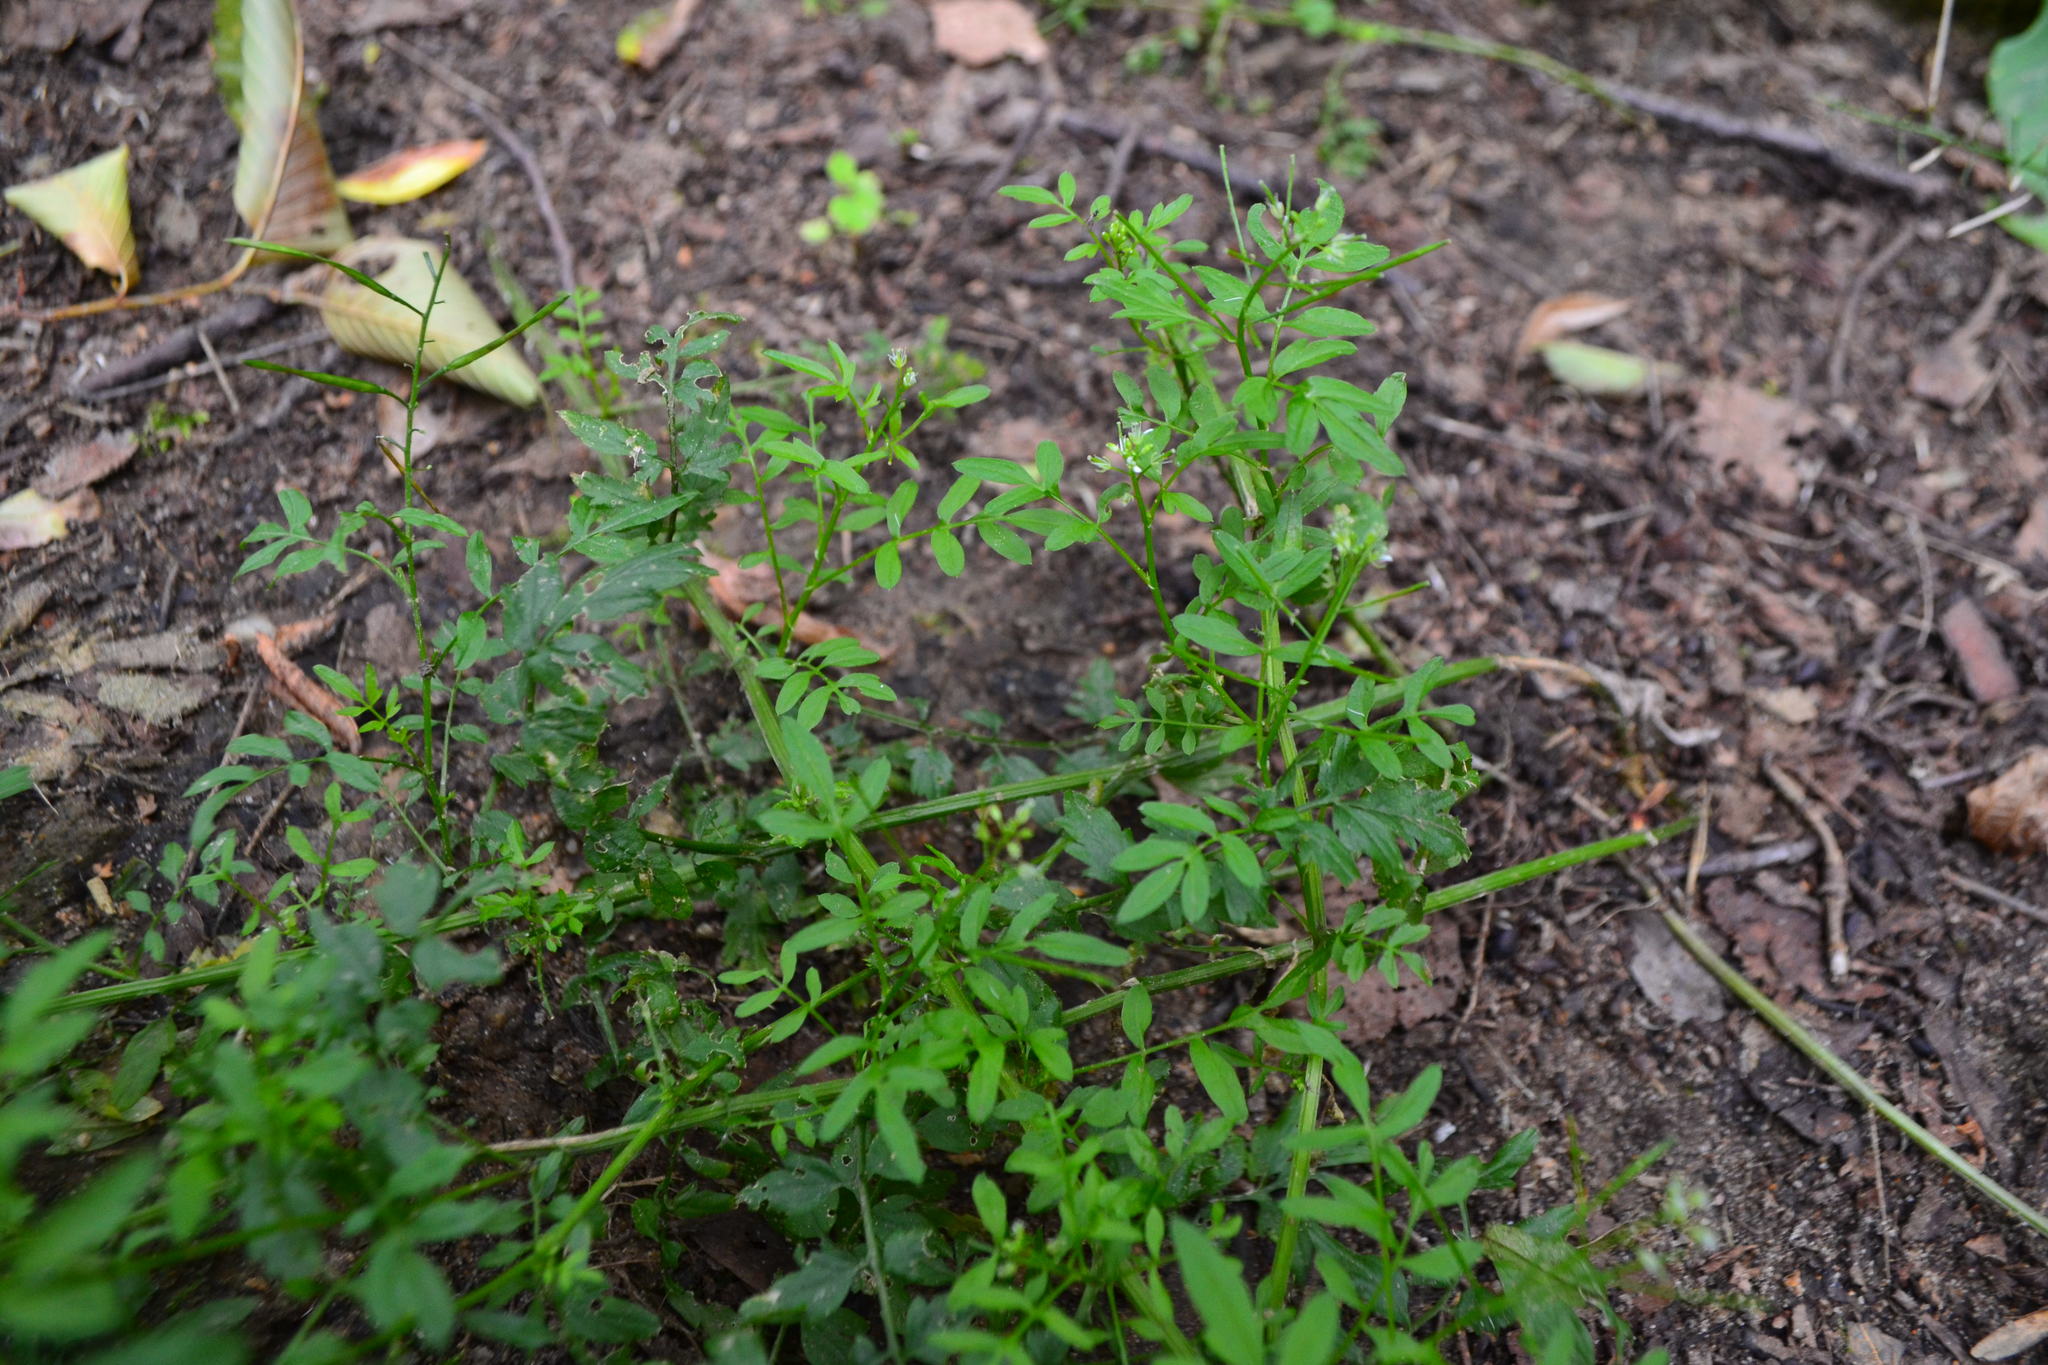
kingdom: Plantae
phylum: Tracheophyta
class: Magnoliopsida
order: Brassicales
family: Brassicaceae
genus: Cardamine
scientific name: Cardamine impatiens
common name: Narrow-leaved bitter-cress
